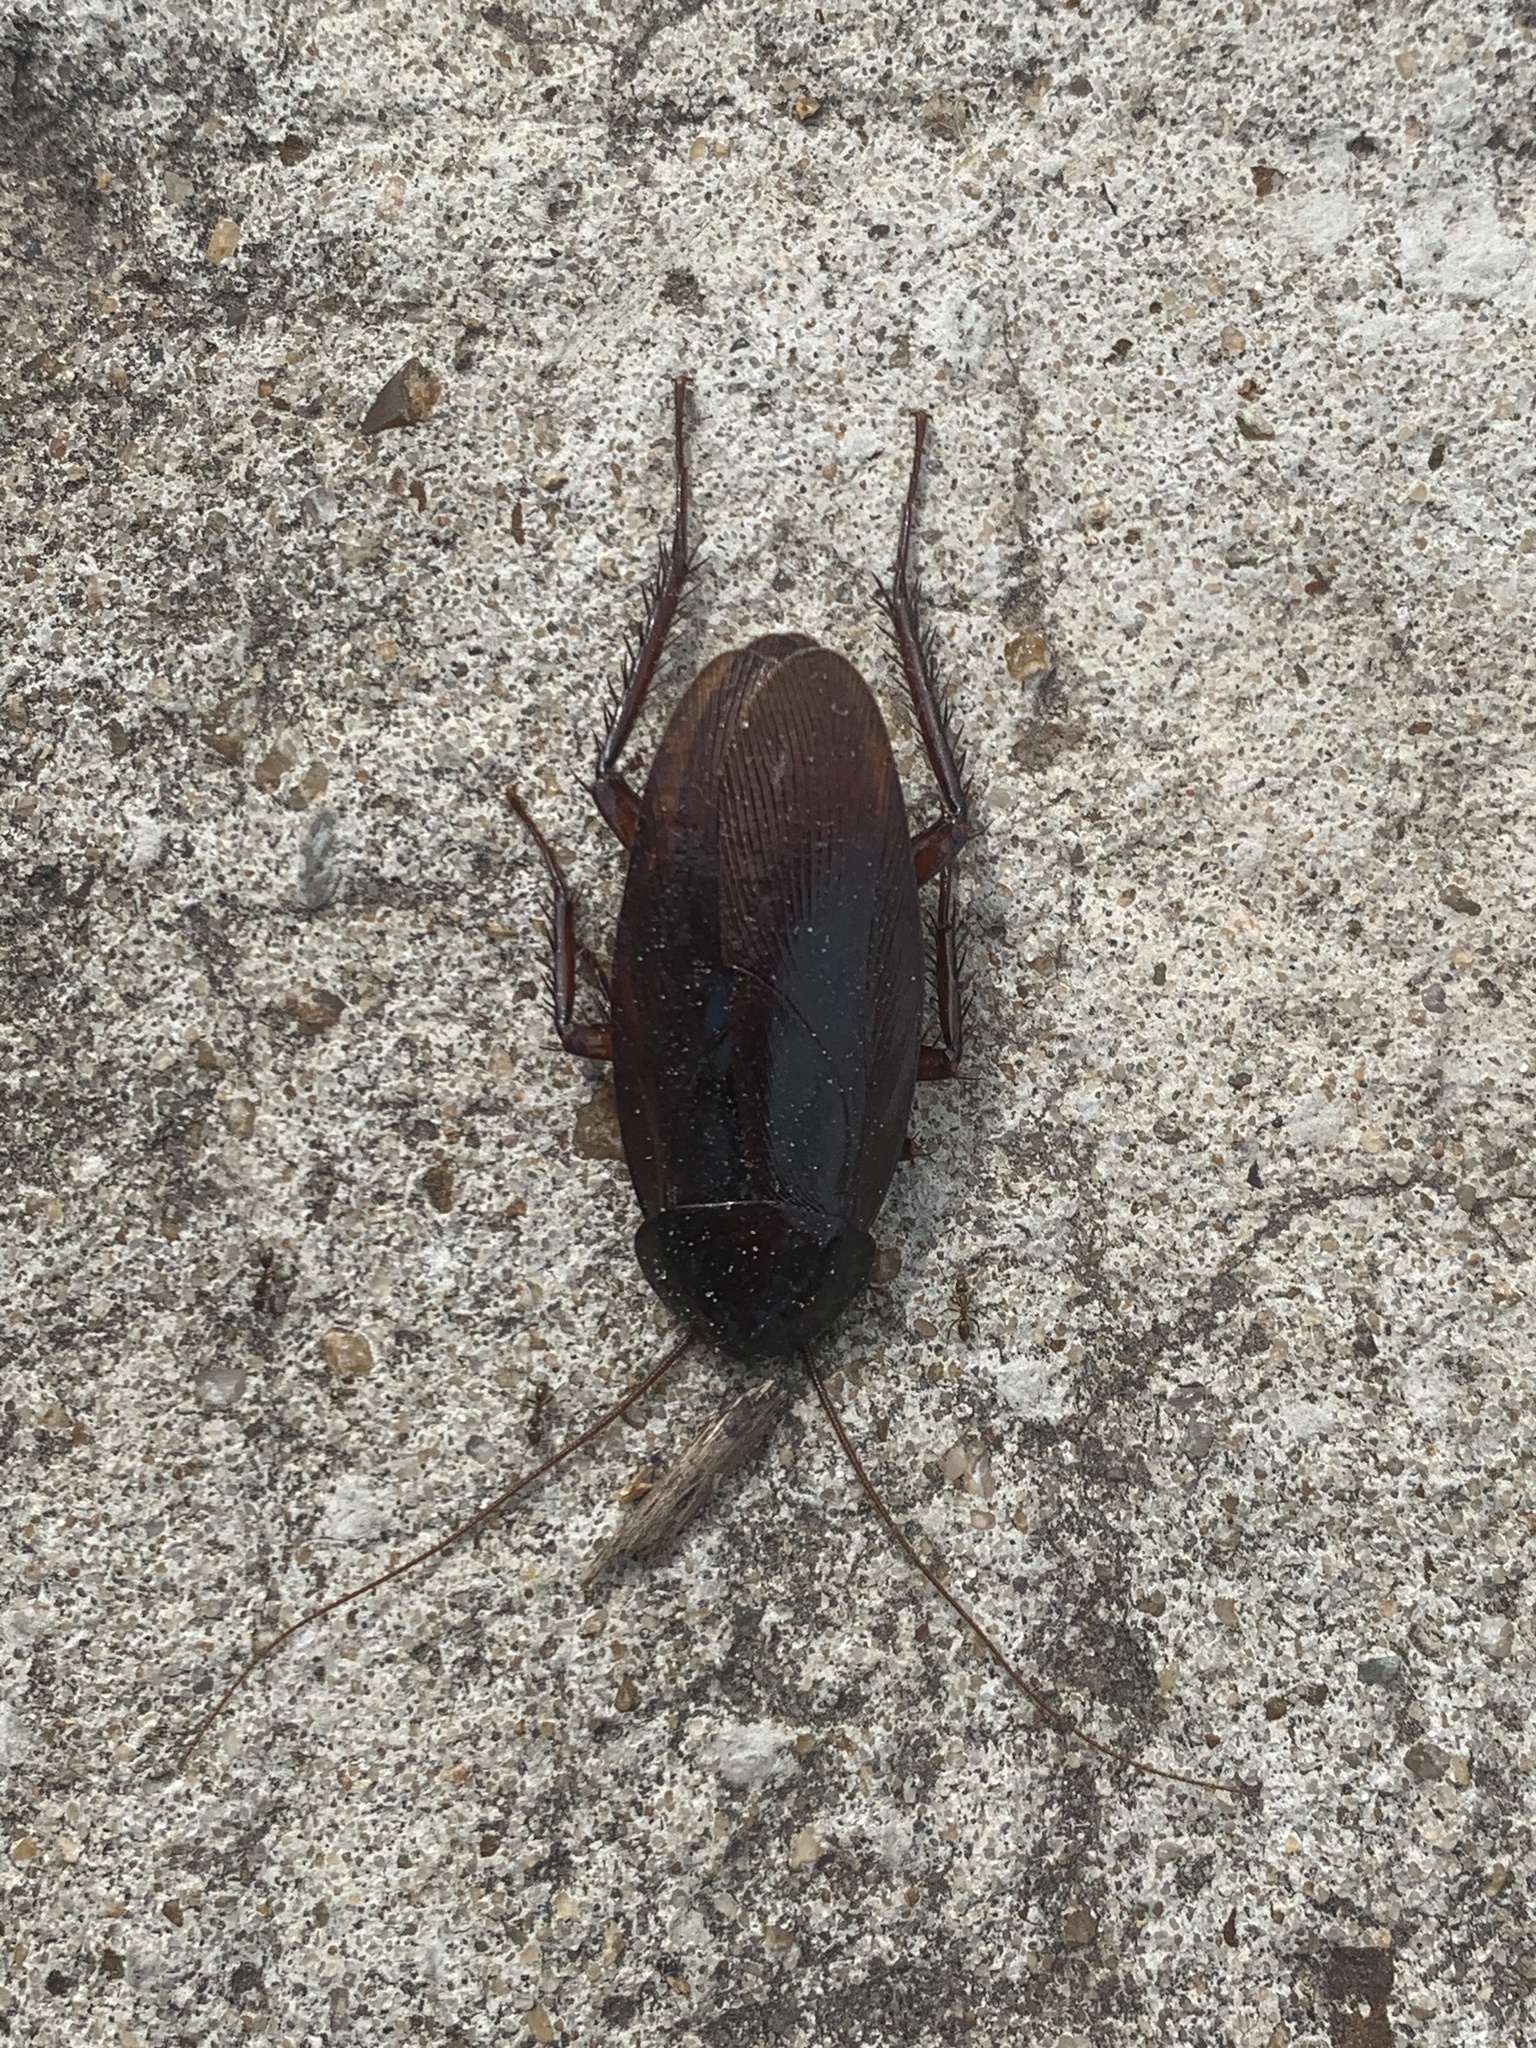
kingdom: Animalia
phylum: Arthropoda
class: Insecta
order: Blattodea
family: Blattidae
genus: Periplaneta
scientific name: Periplaneta fuliginosa
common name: Smokeybrown cockroad
